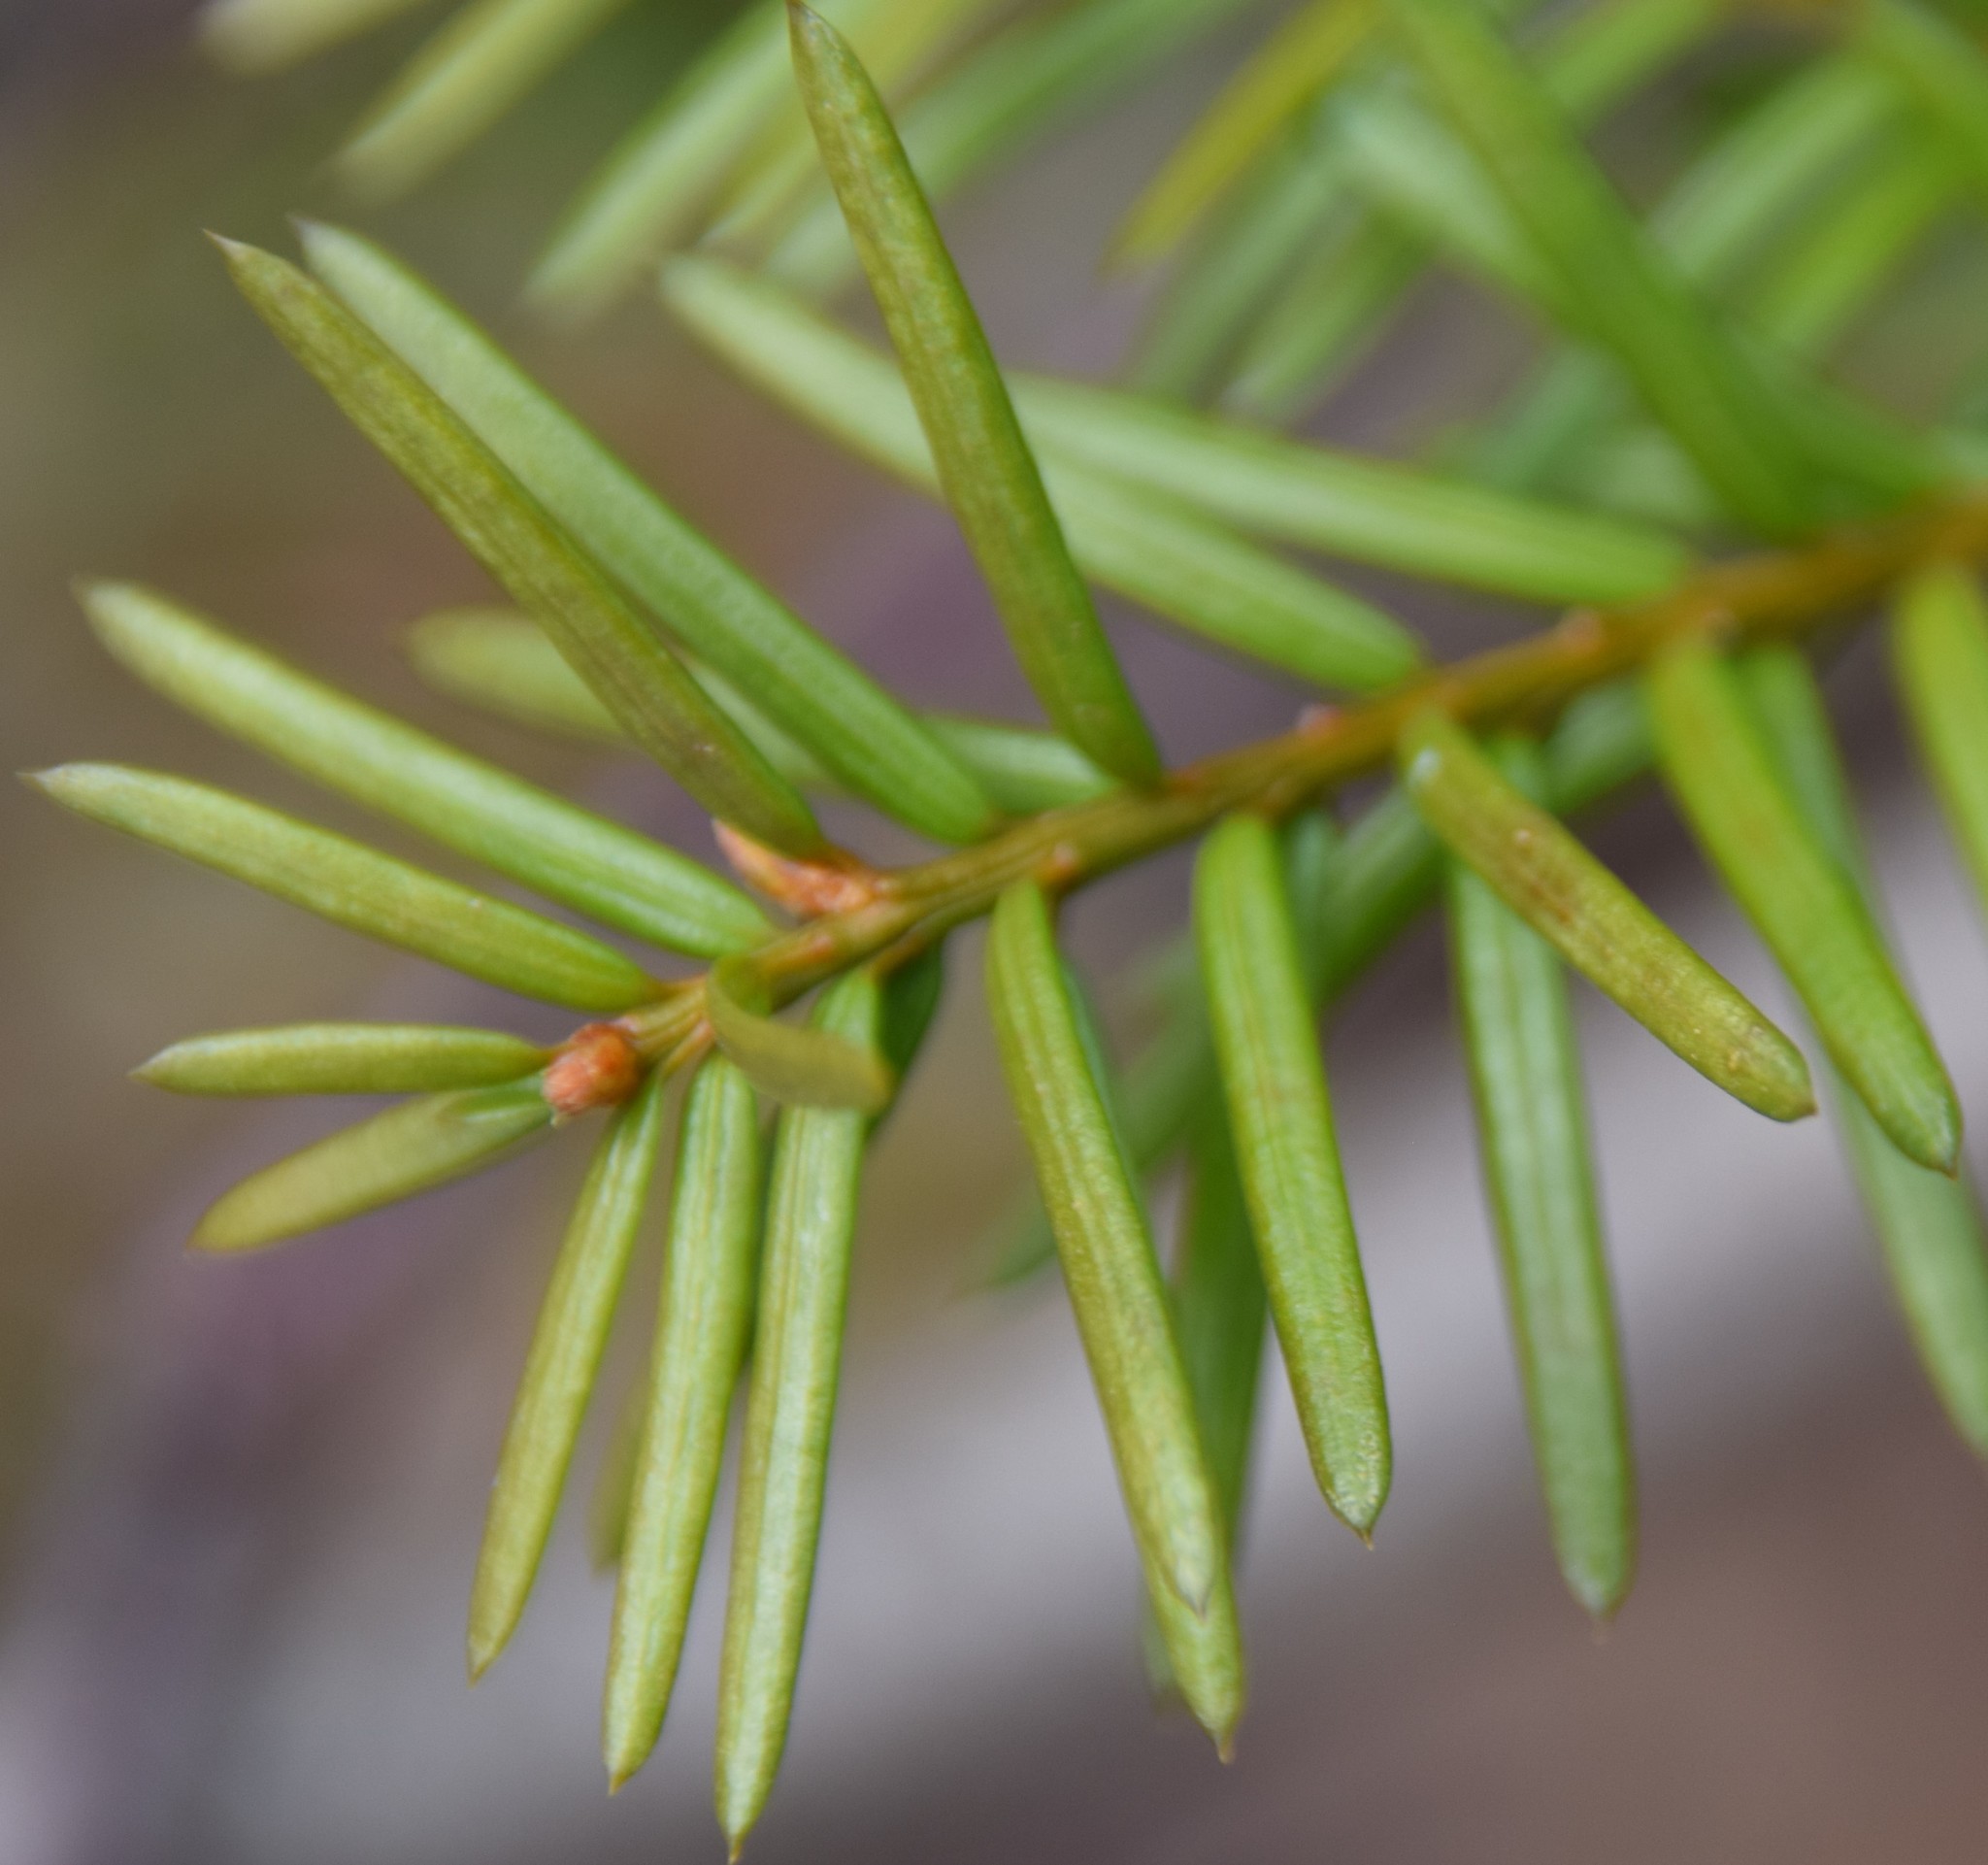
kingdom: Plantae
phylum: Tracheophyta
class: Pinopsida
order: Pinales
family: Taxaceae
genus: Taxus
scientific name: Taxus canadensis
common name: American yew
